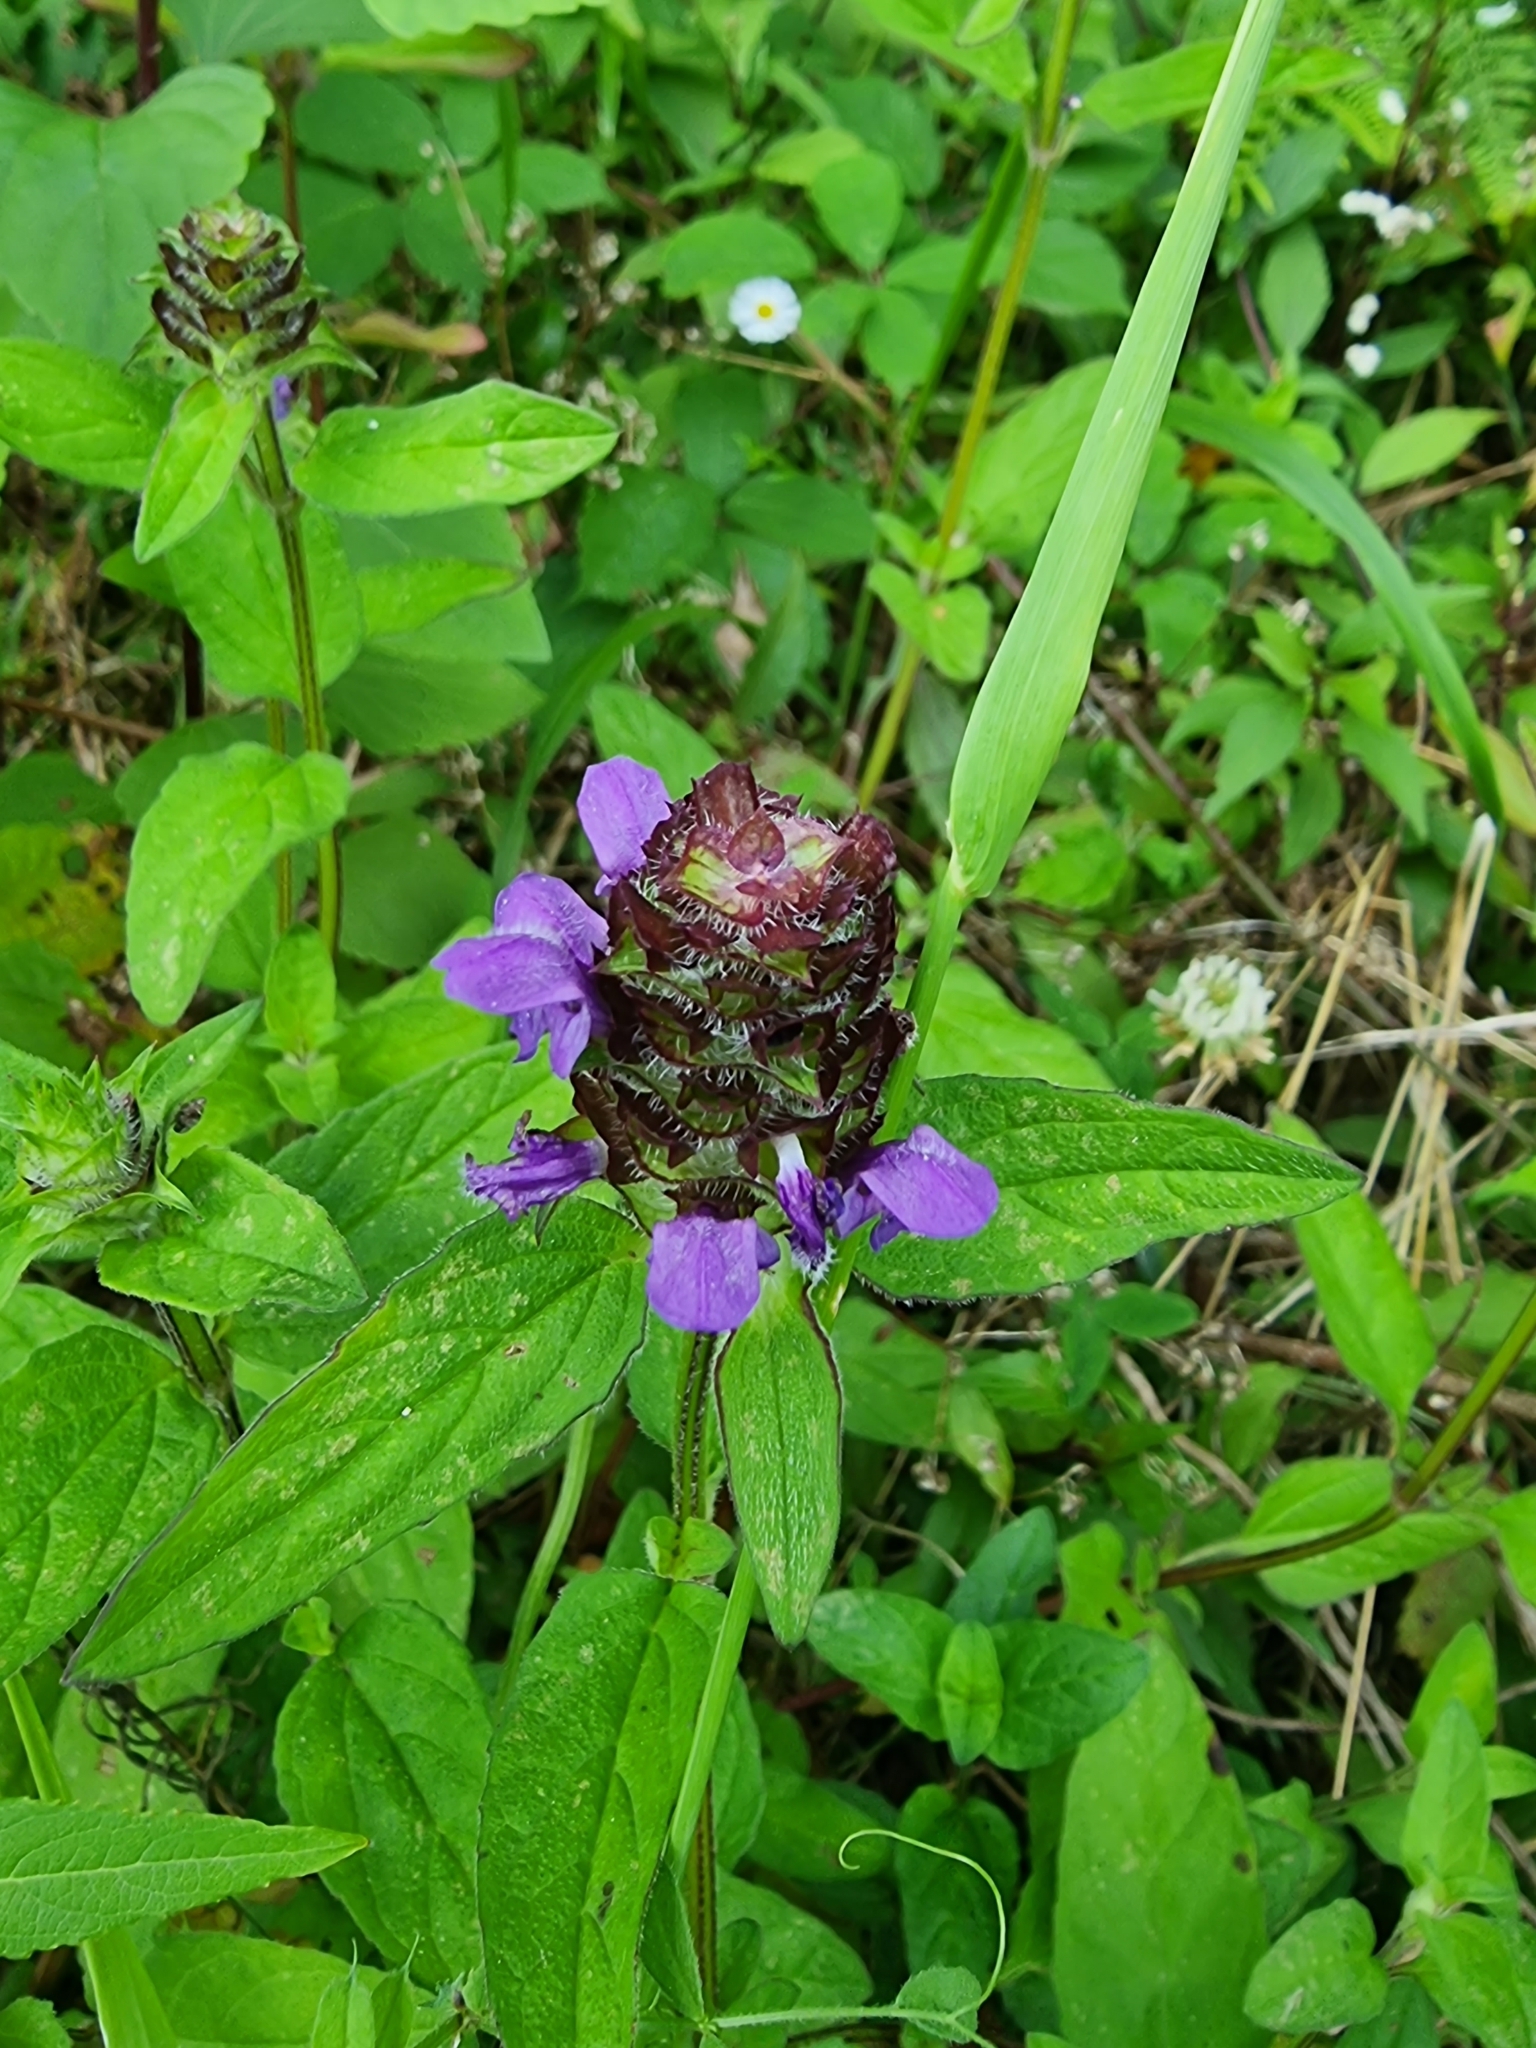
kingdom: Plantae
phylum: Tracheophyta
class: Magnoliopsida
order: Lamiales
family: Lamiaceae
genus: Prunella
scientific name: Prunella vulgaris
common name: Heal-all
